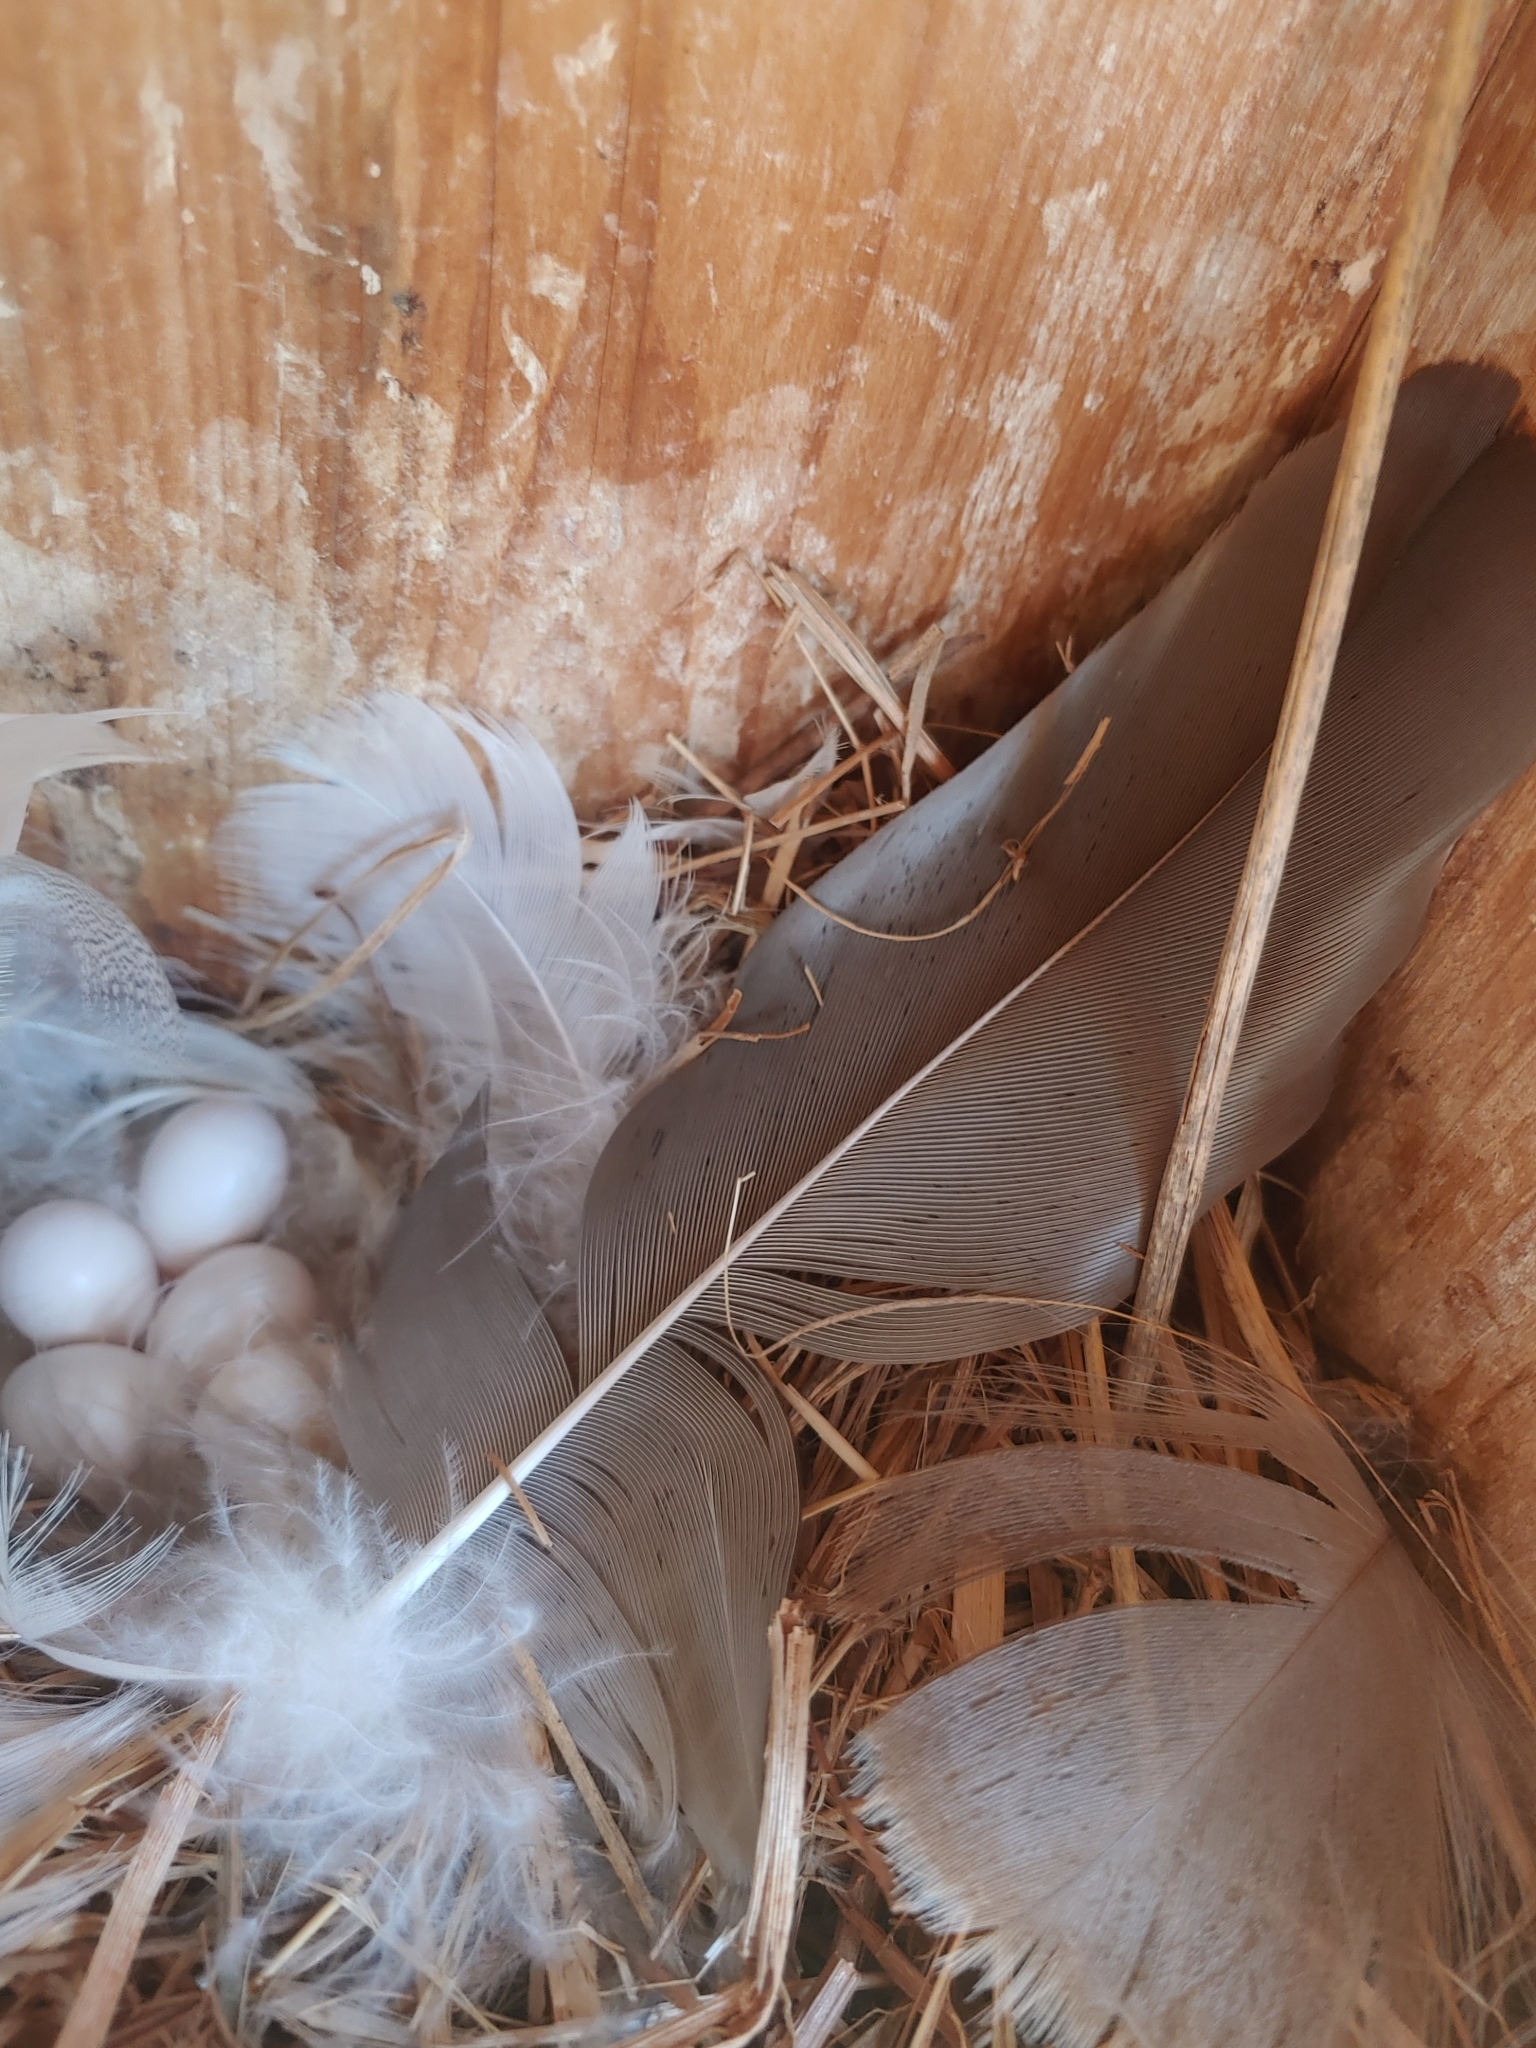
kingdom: Animalia
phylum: Chordata
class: Aves
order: Passeriformes
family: Hirundinidae
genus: Tachycineta
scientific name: Tachycineta bicolor
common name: Tree swallow
